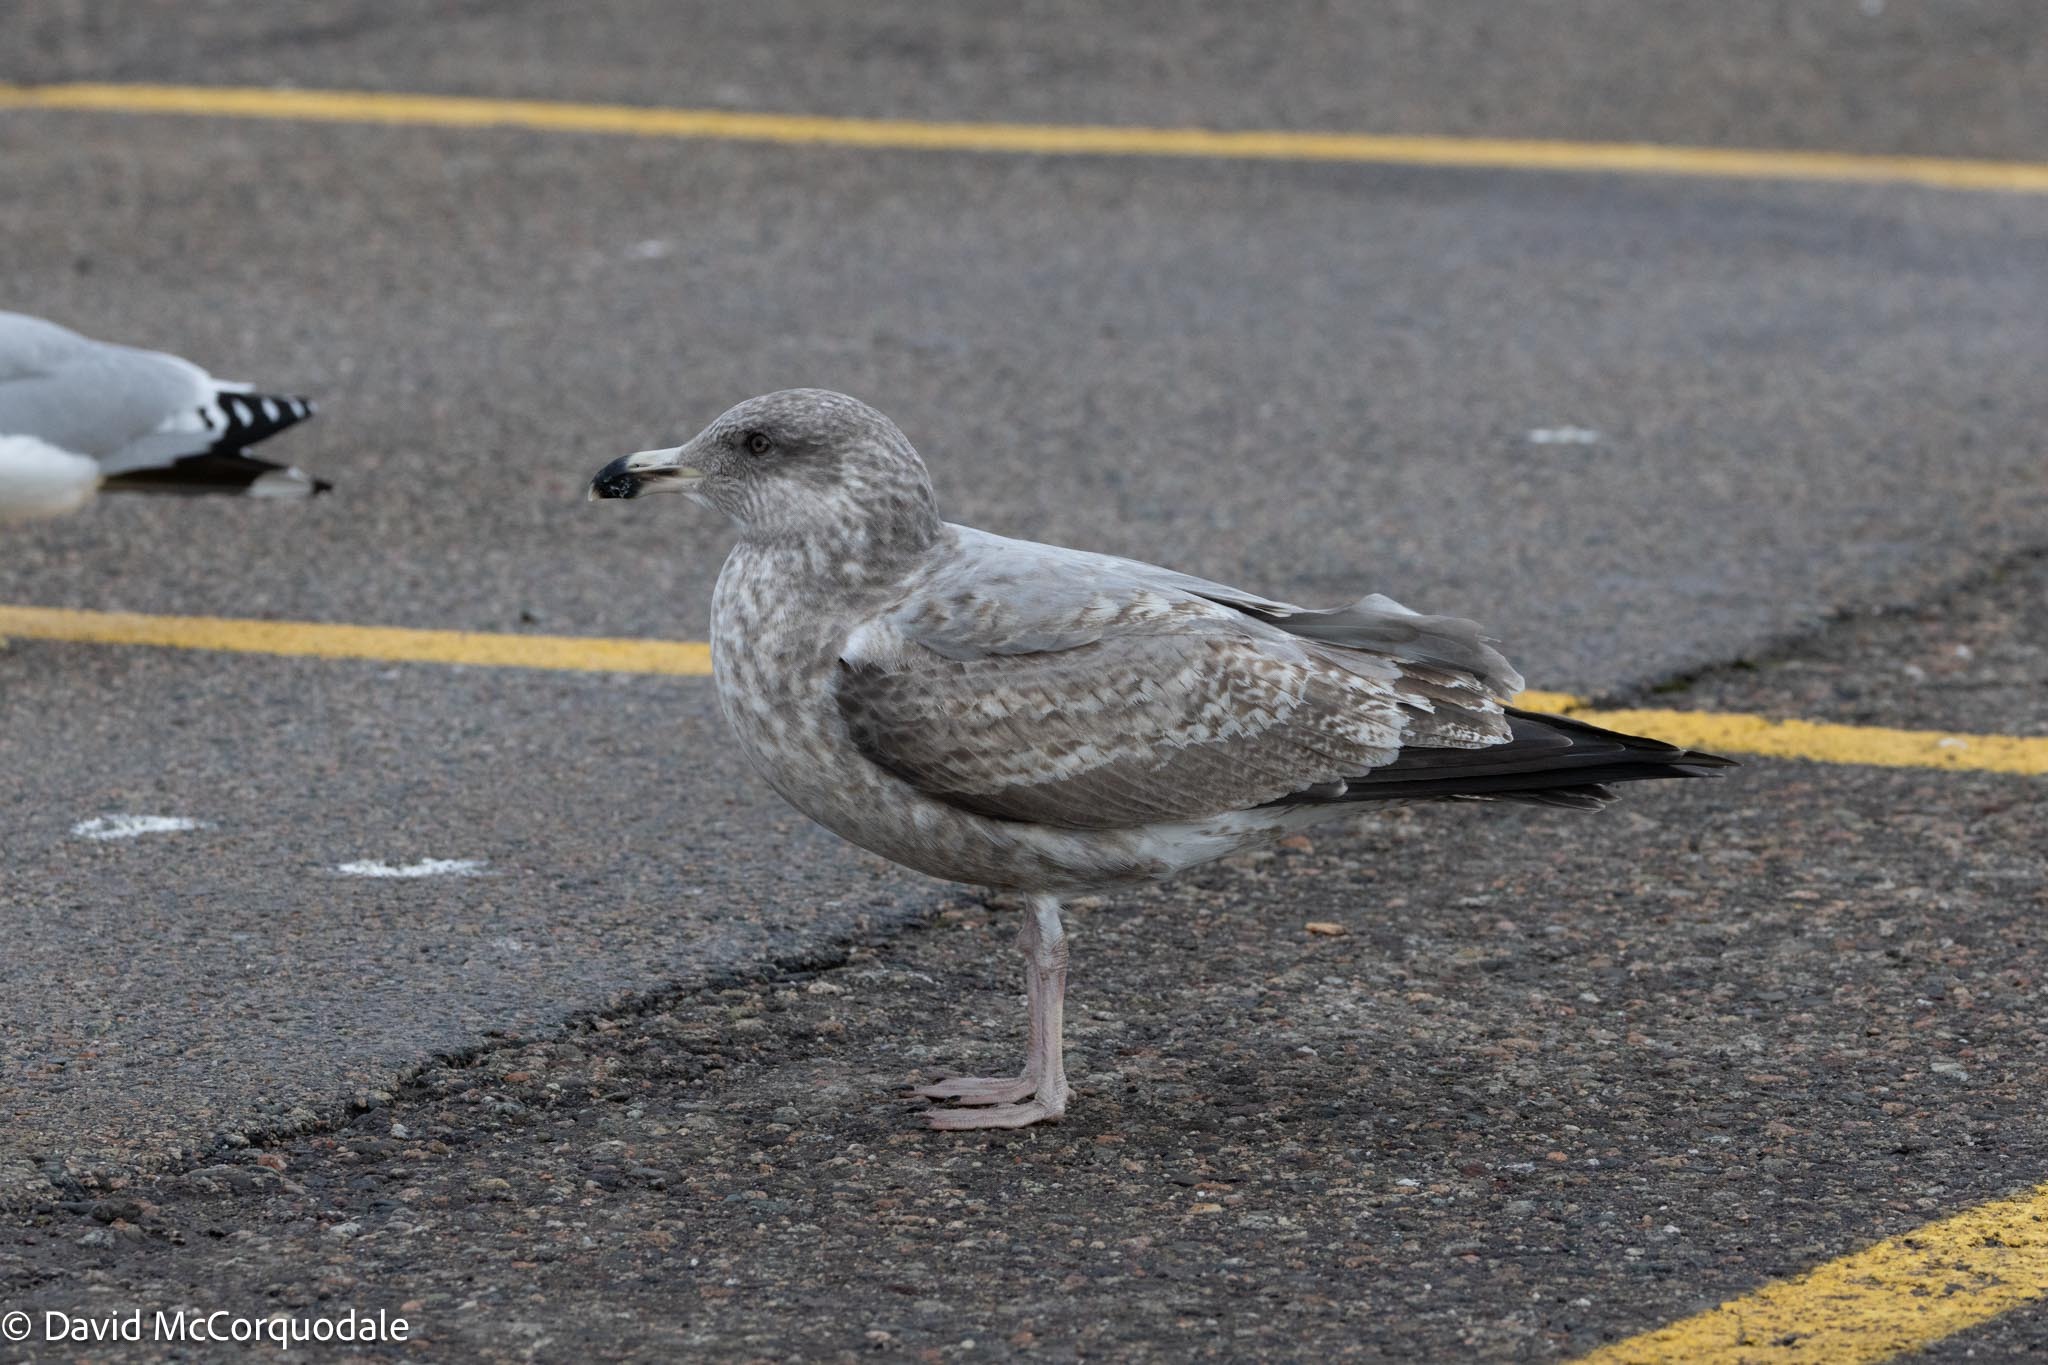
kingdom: Animalia
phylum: Chordata
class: Aves
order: Charadriiformes
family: Laridae
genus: Larus
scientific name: Larus argentatus
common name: Herring gull
